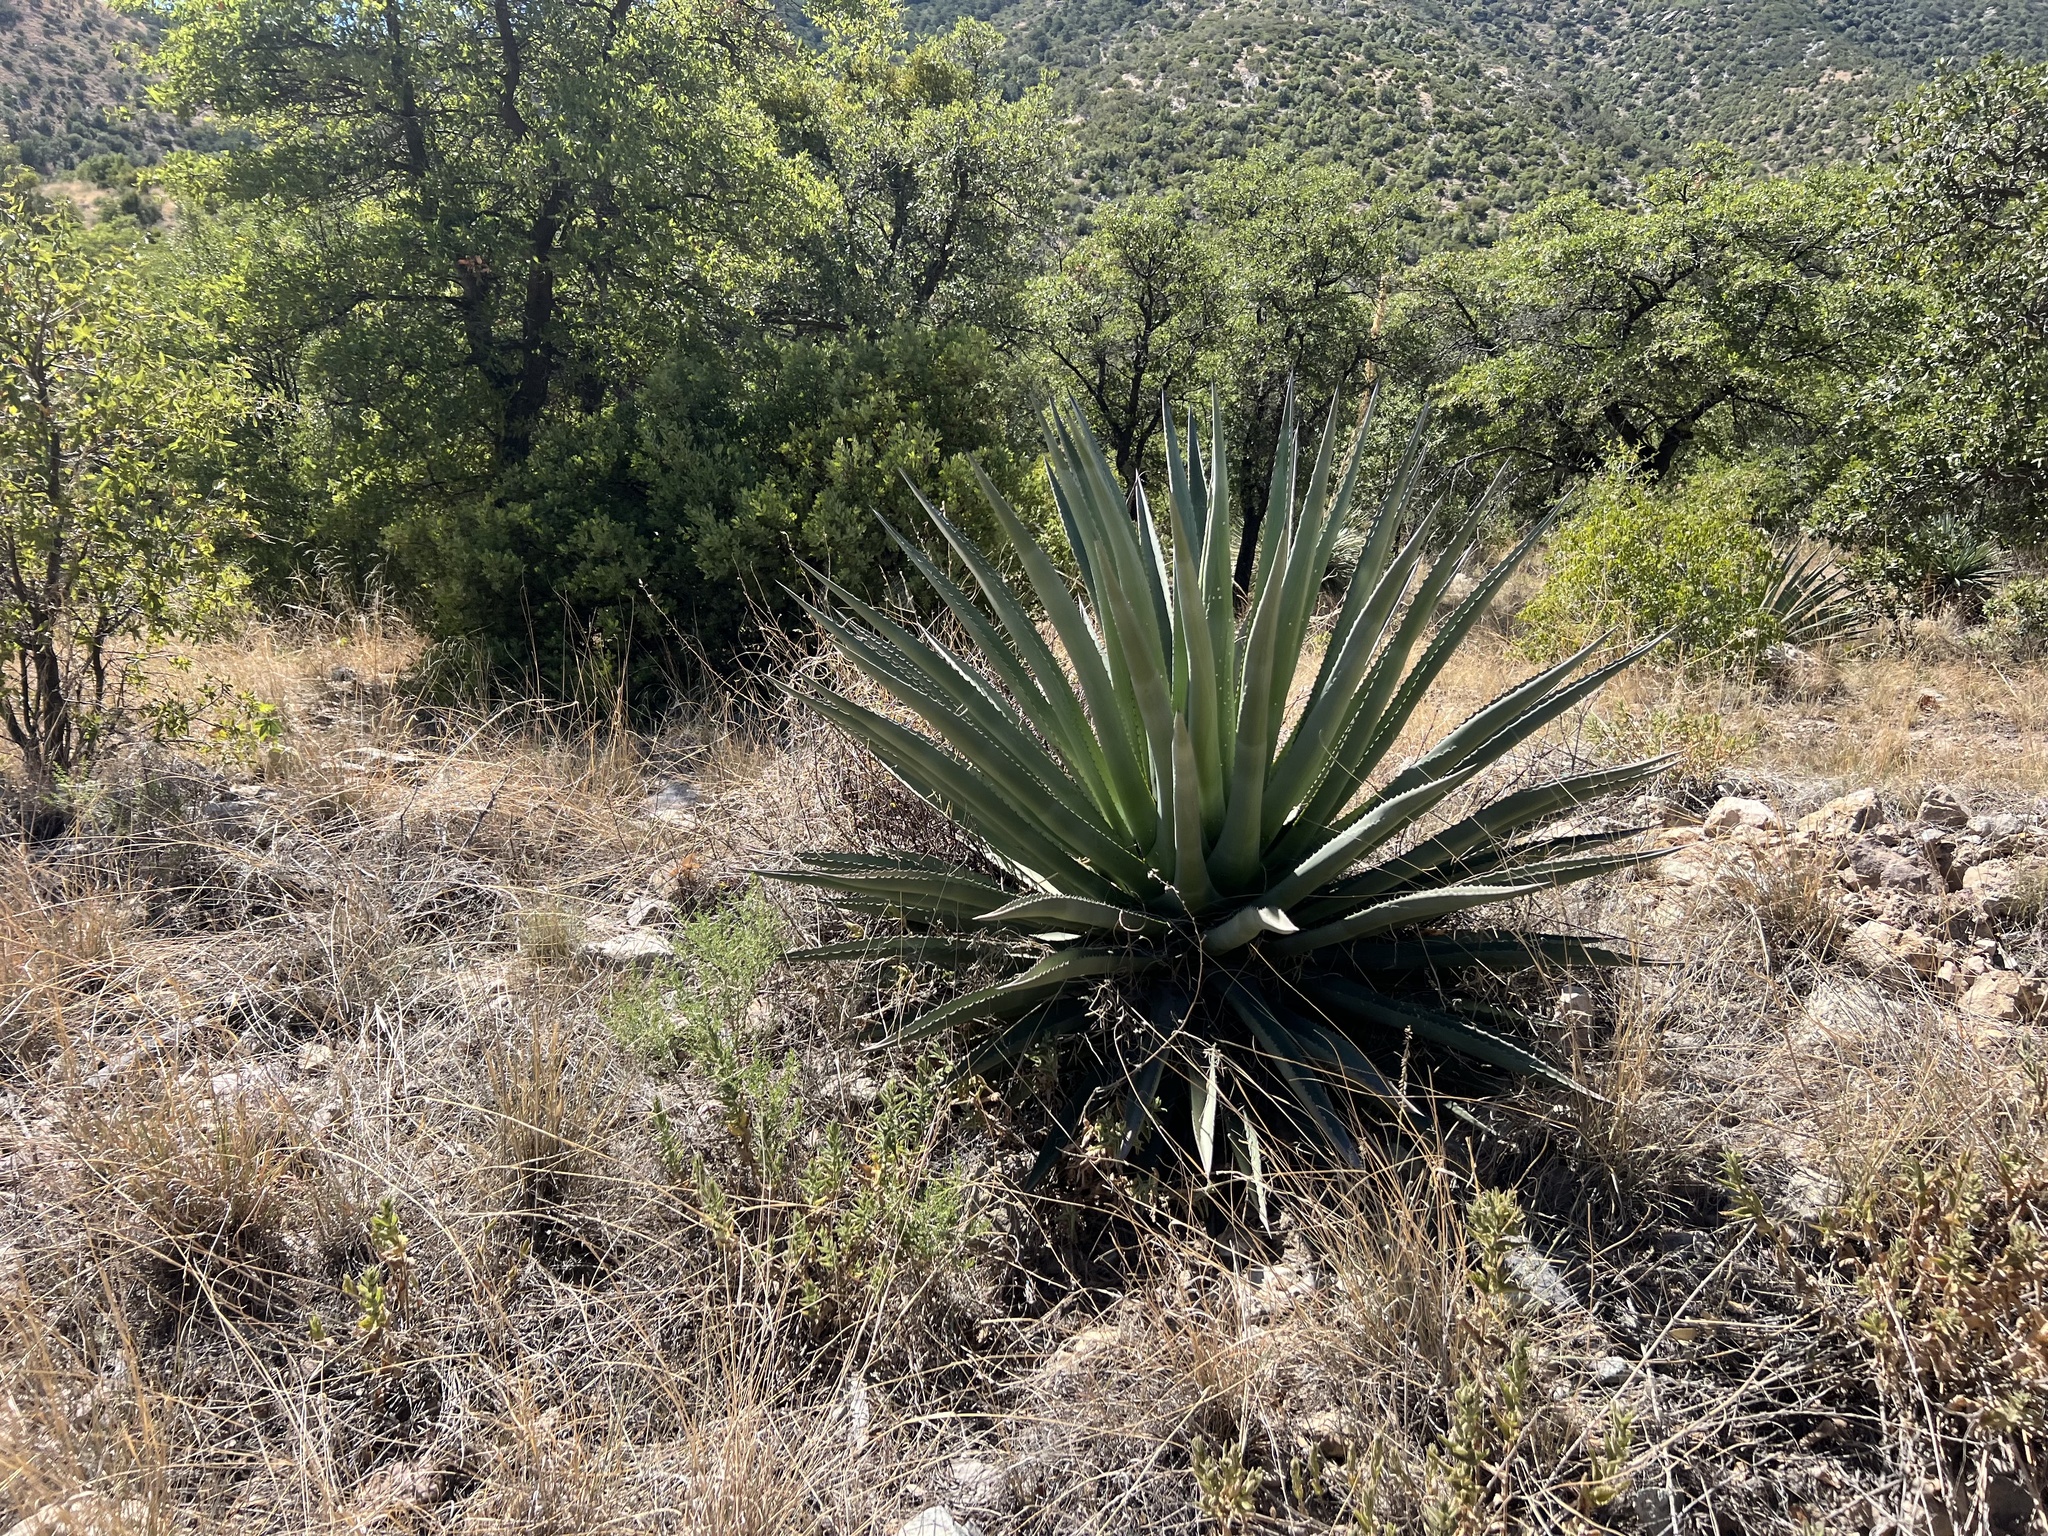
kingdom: Plantae
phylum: Tracheophyta
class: Liliopsida
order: Asparagales
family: Asparagaceae
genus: Agave
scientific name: Agave palmeri
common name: Palmer agave
